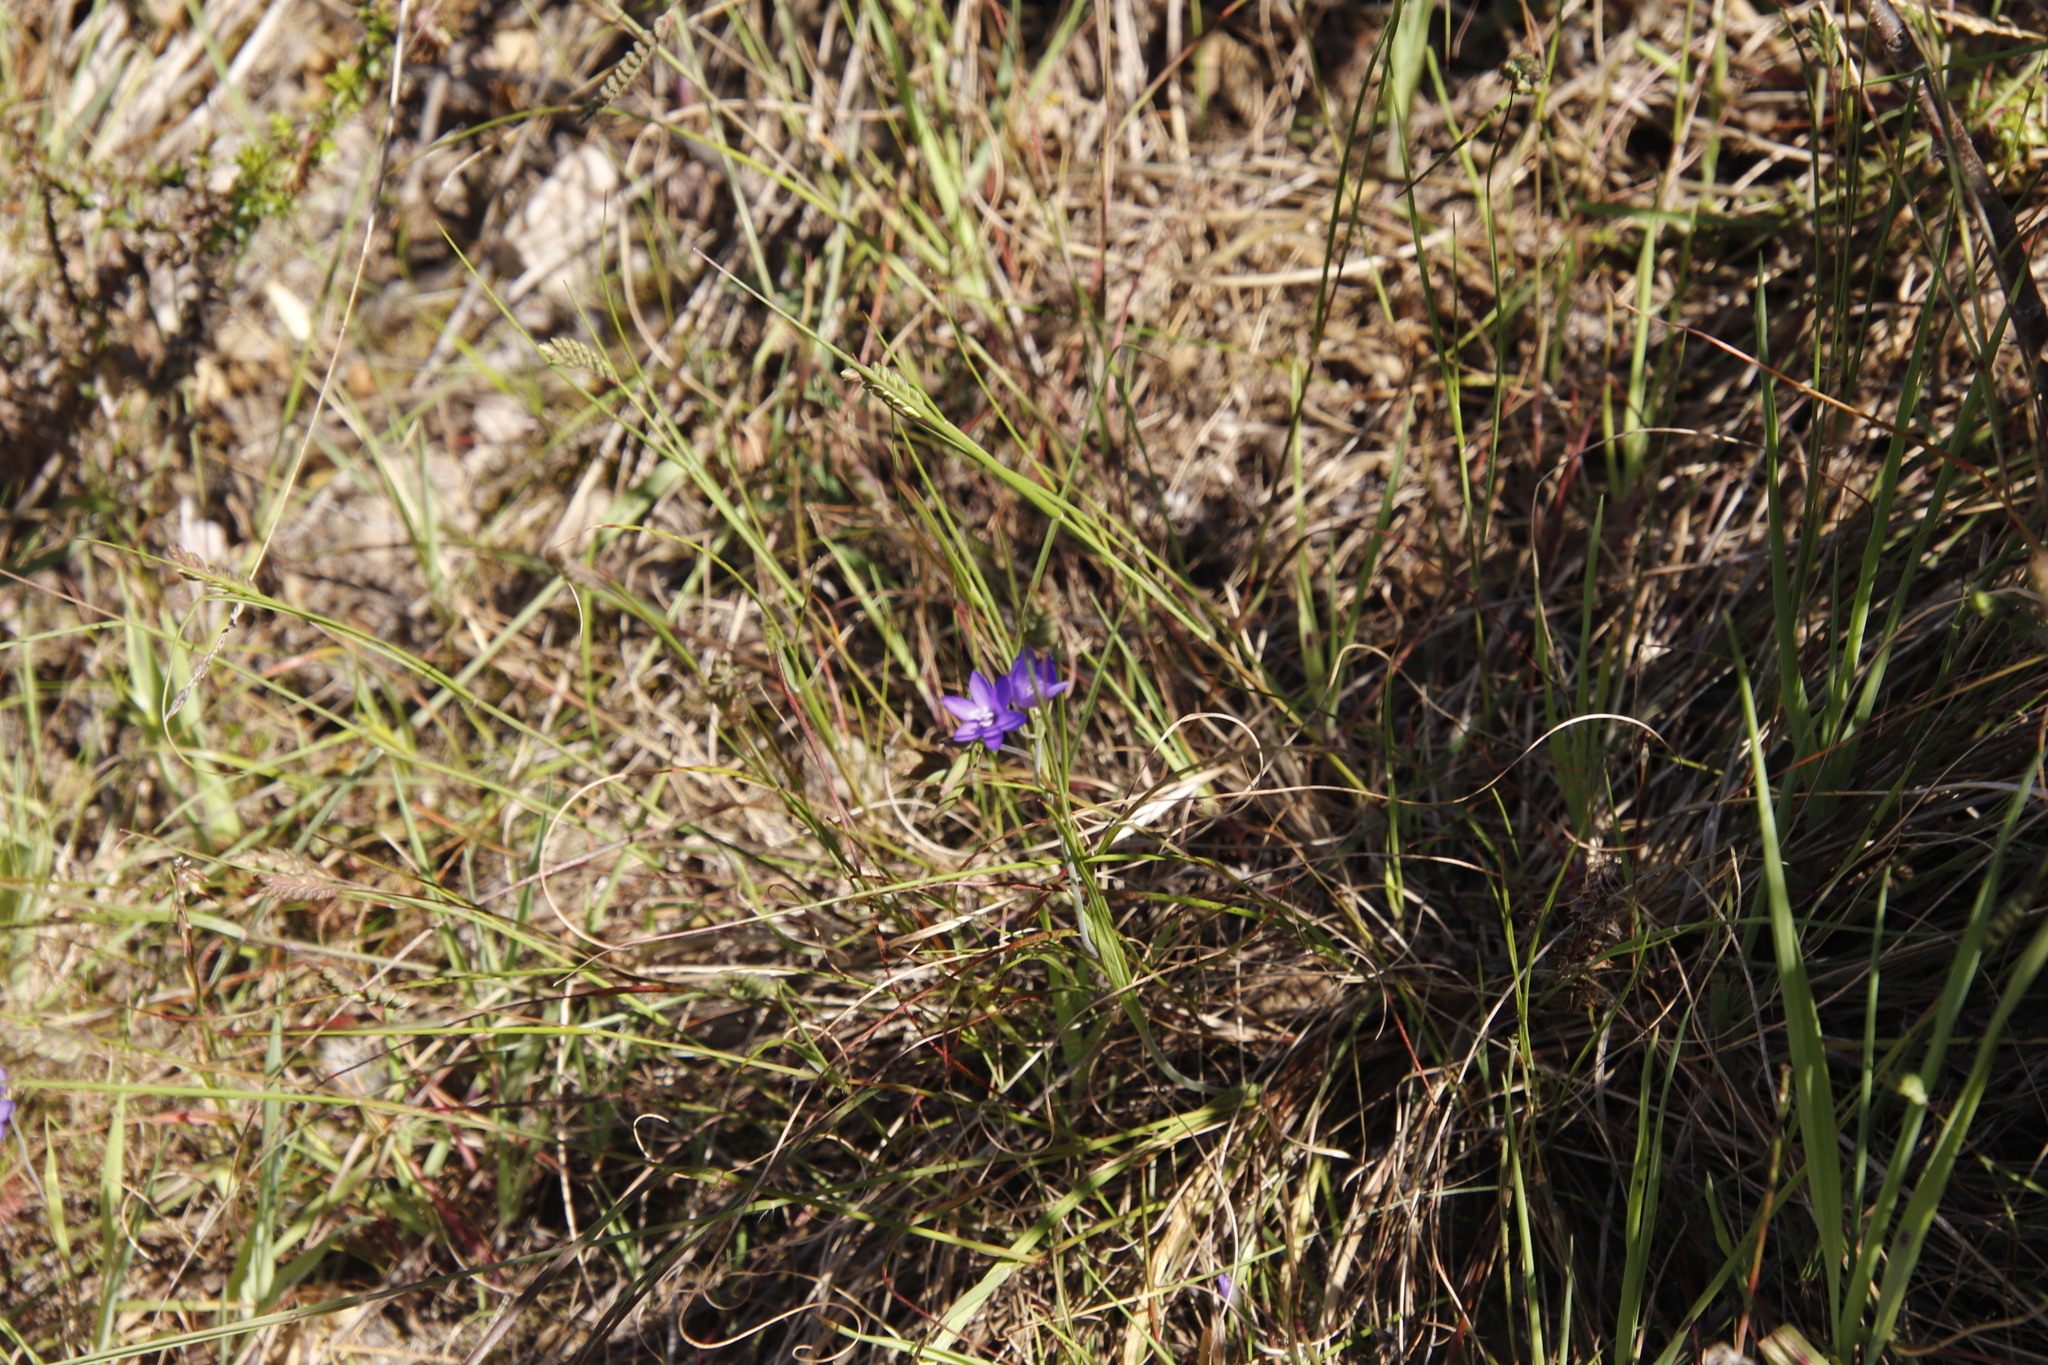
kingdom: Plantae
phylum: Tracheophyta
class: Liliopsida
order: Asparagales
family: Iridaceae
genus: Geissorhiza
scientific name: Geissorhiza aspera
